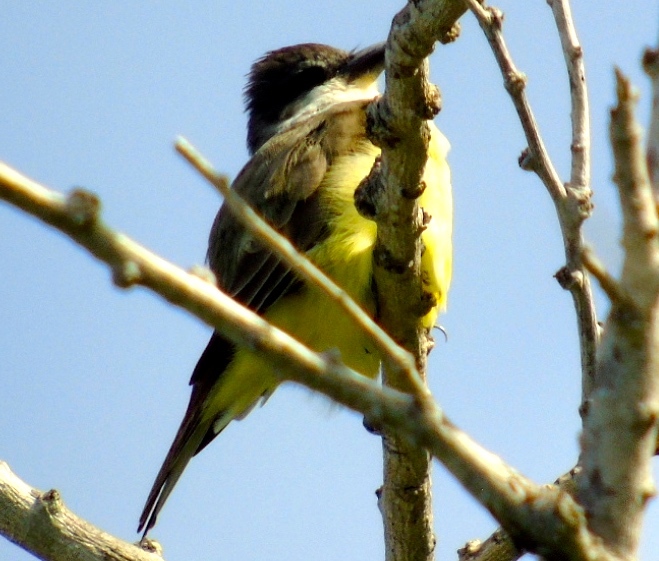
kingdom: Animalia
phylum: Chordata
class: Aves
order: Passeriformes
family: Tyrannidae
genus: Tyrannus
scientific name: Tyrannus crassirostris
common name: Thick-billed kingbird
